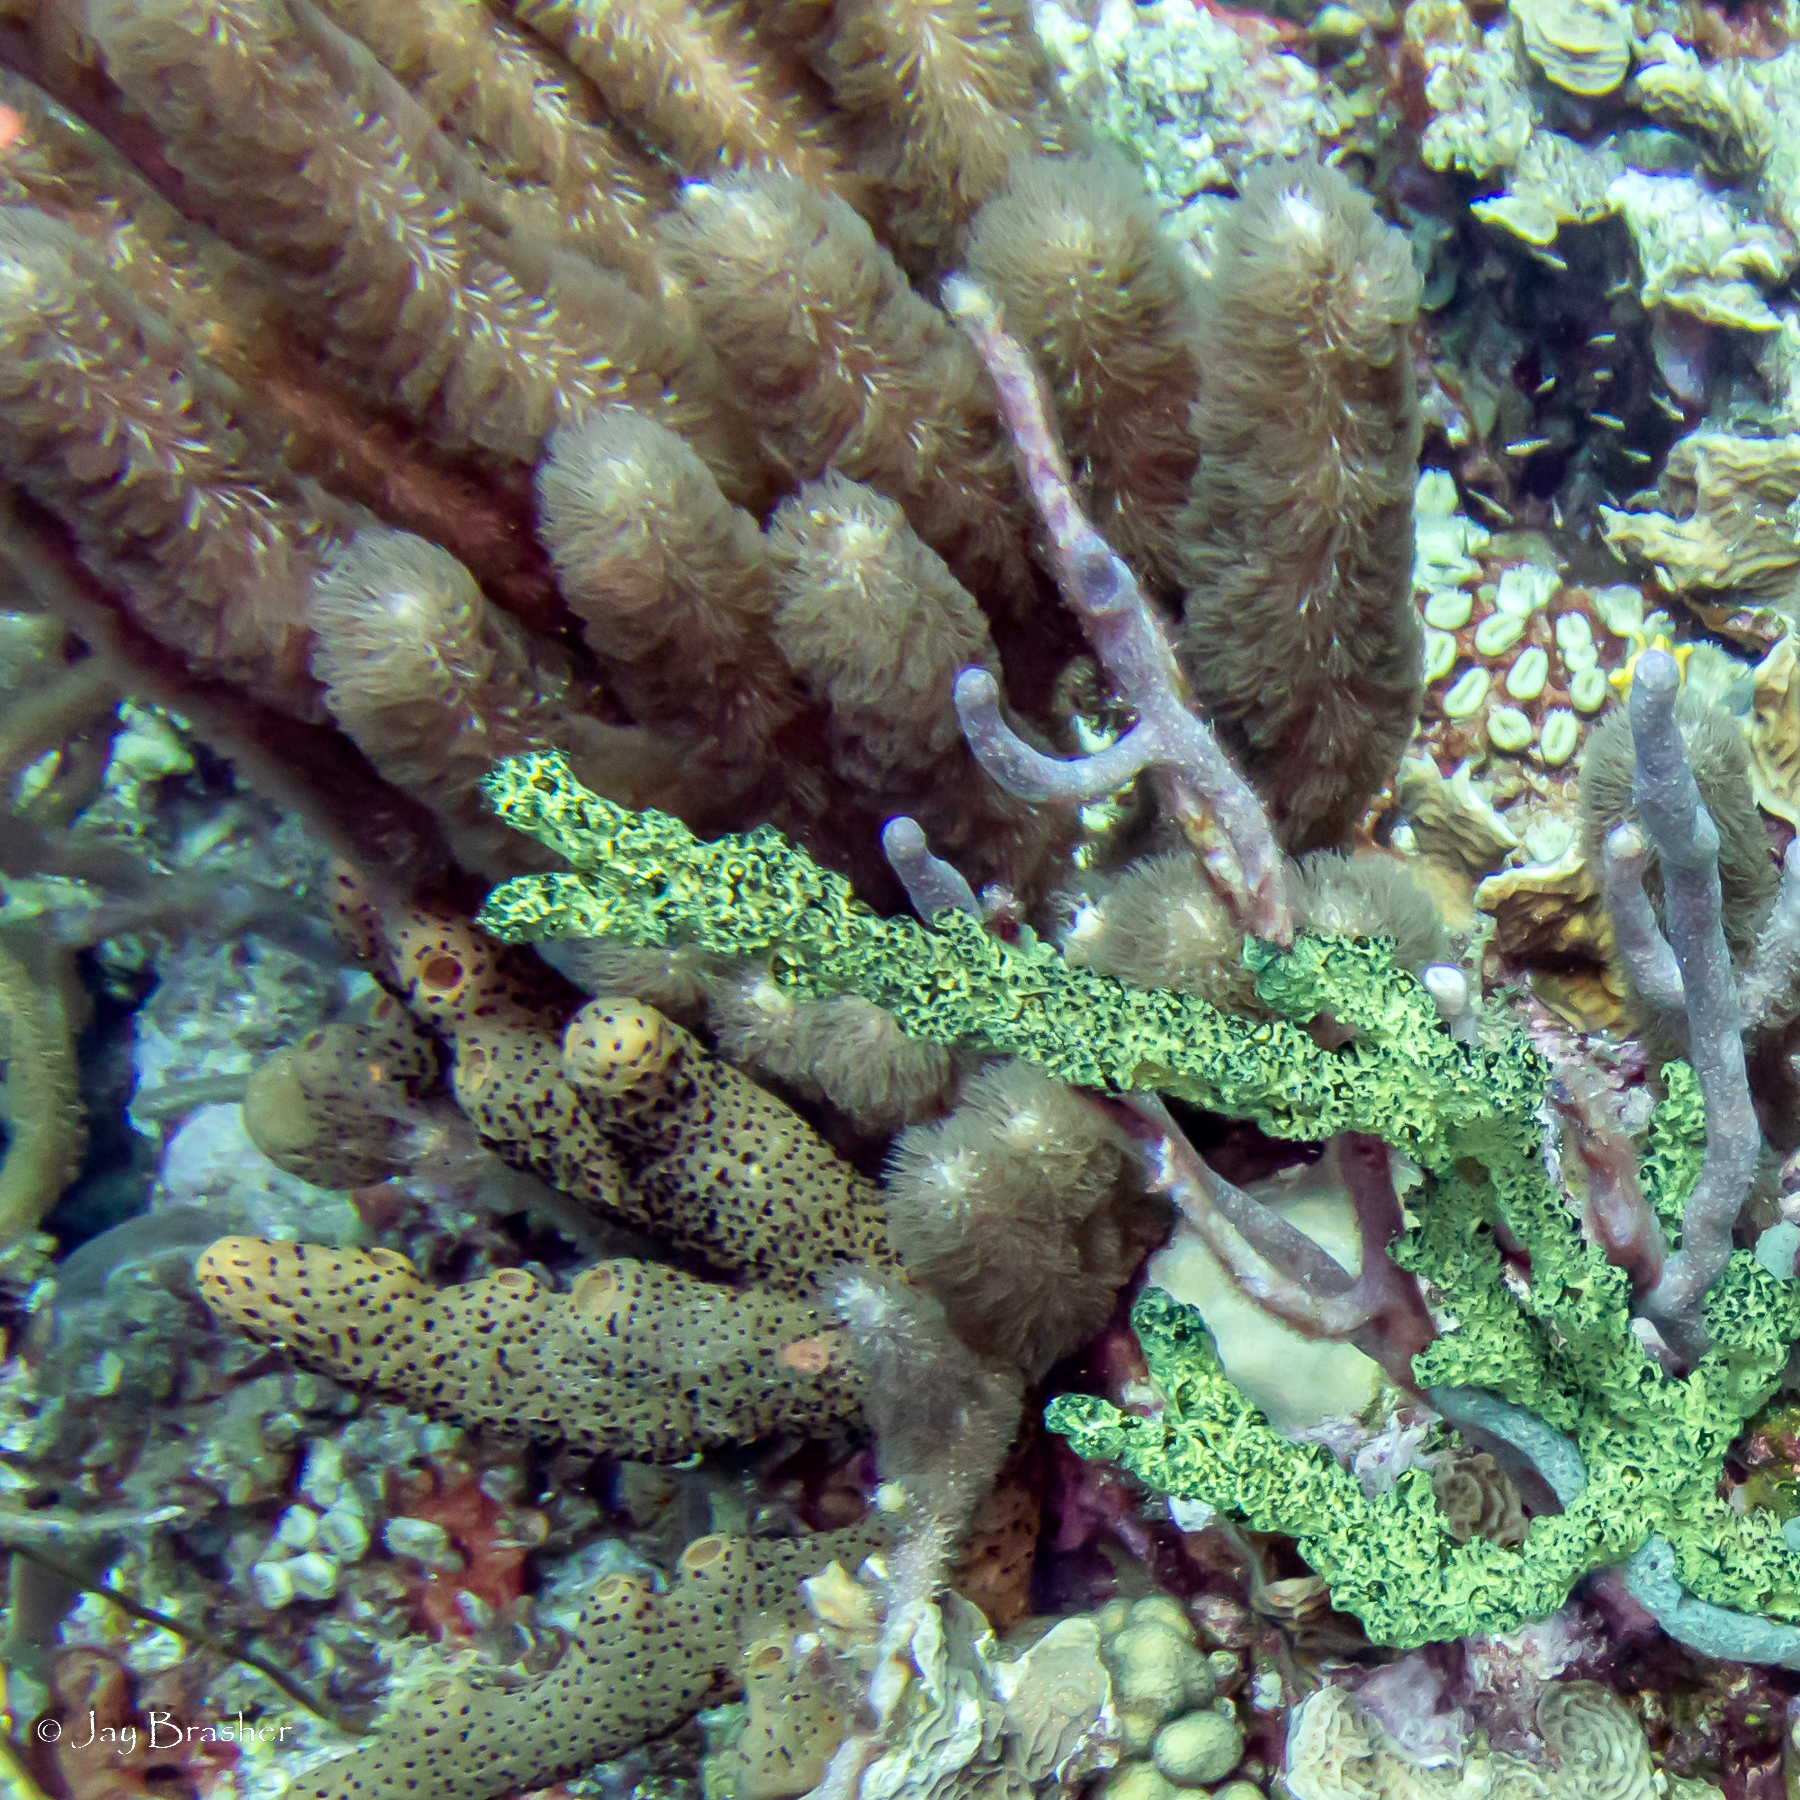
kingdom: Animalia
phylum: Porifera
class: Demospongiae
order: Agelasida
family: Agelasidae
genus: Agelas
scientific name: Agelas conifera
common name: Brown tube sponge
